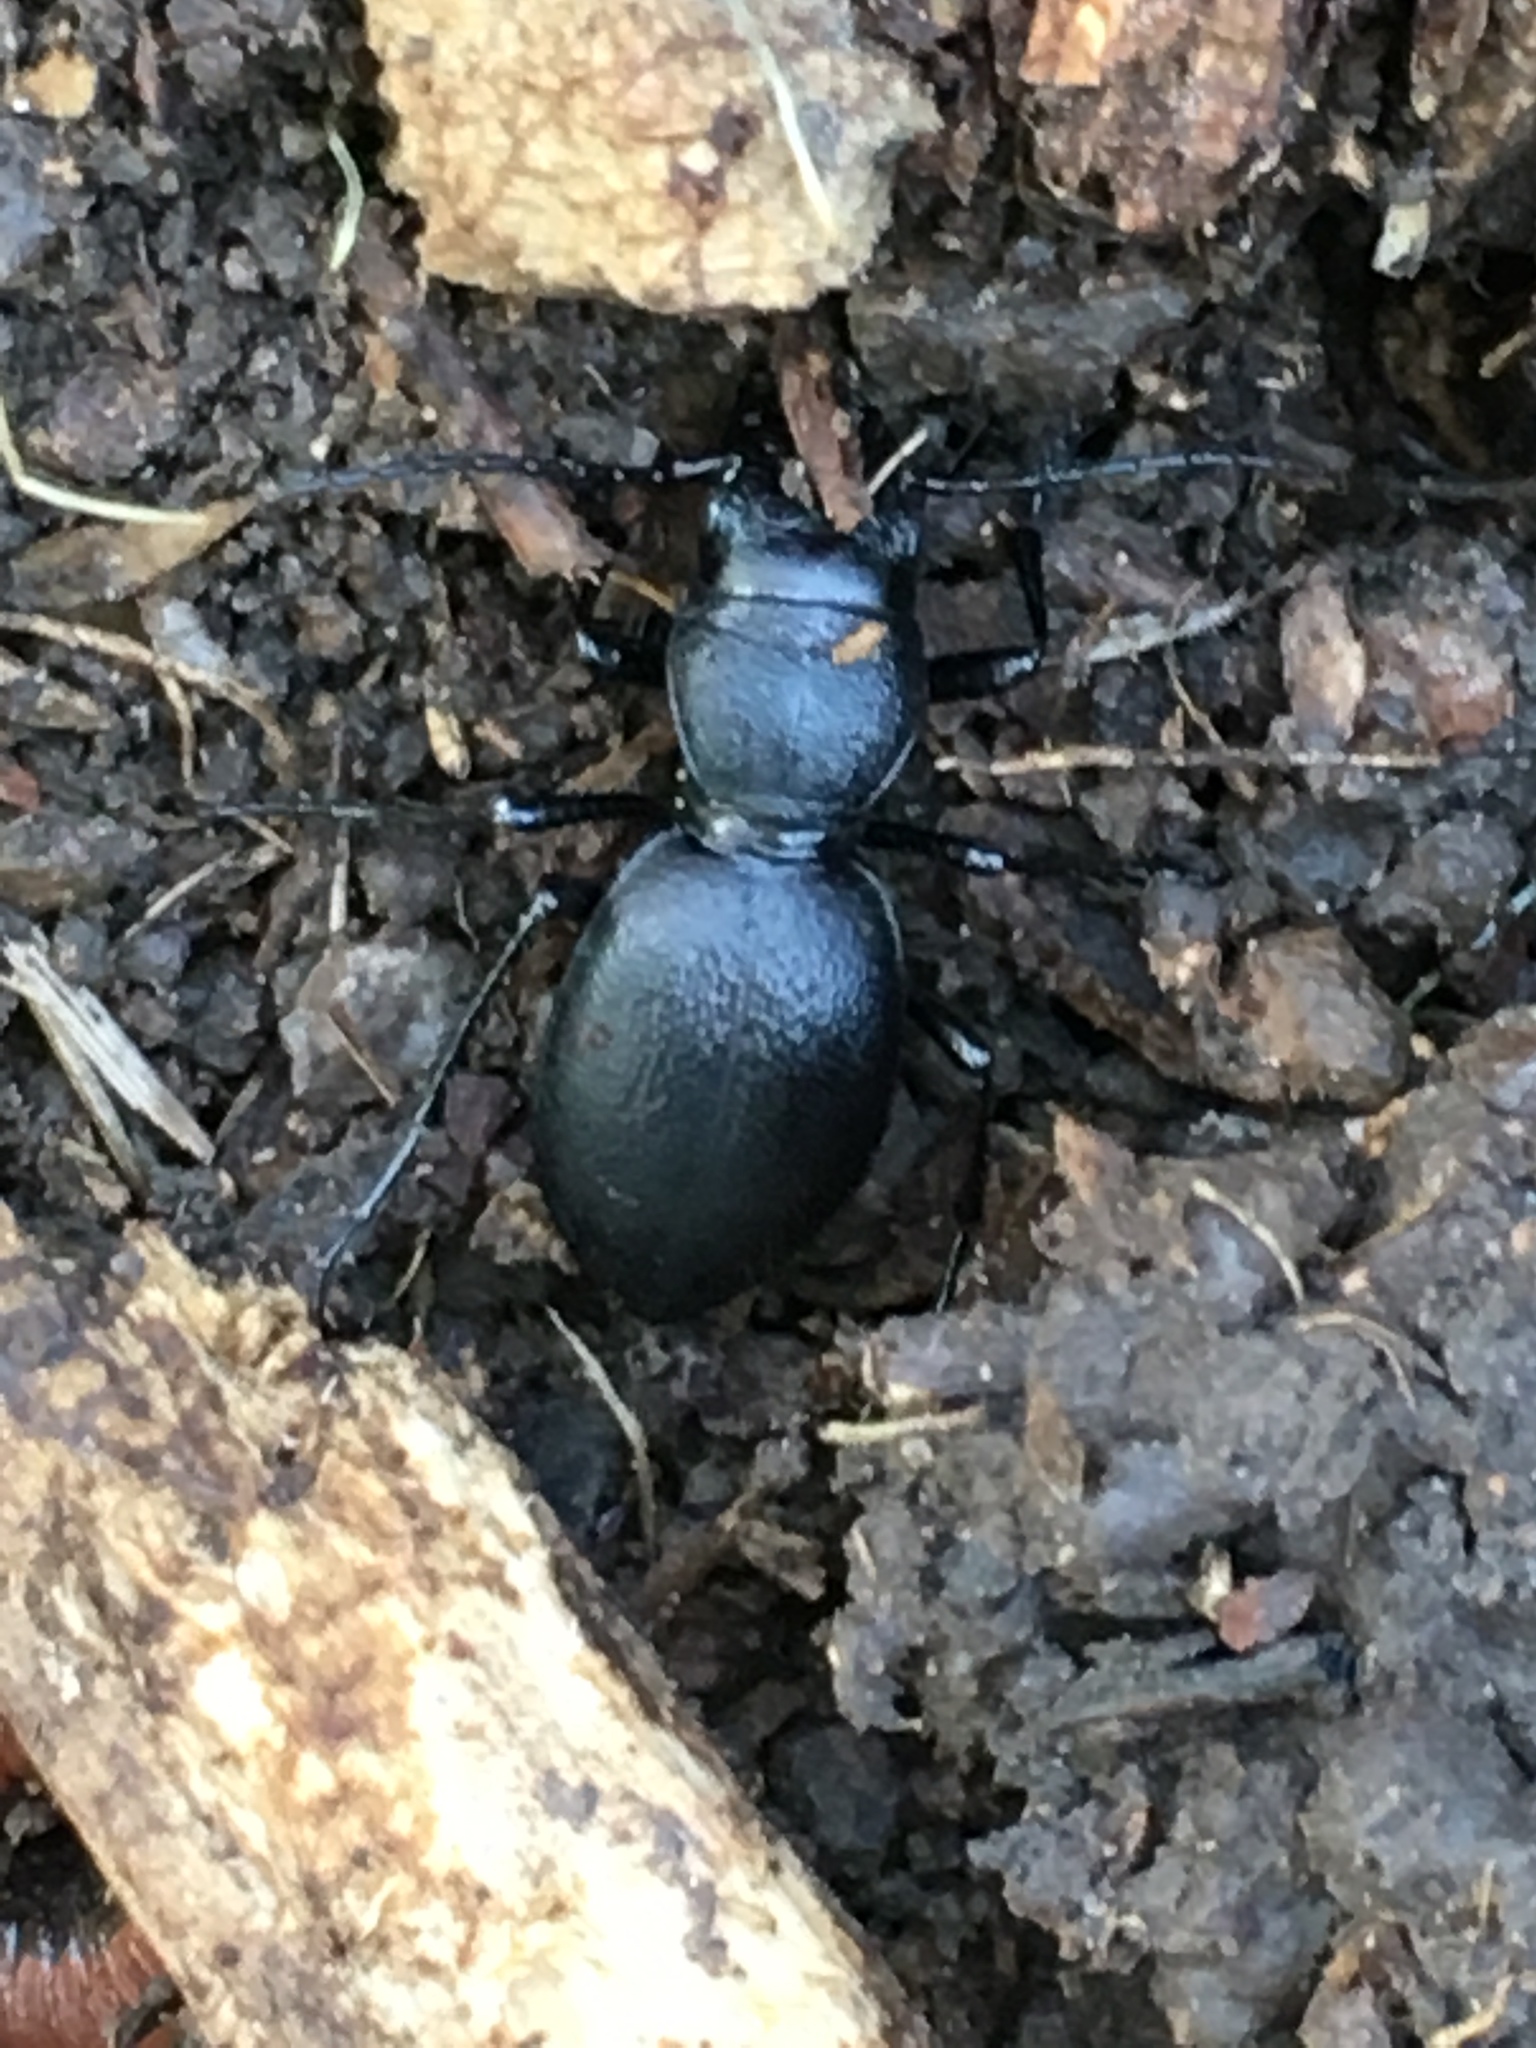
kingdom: Animalia
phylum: Arthropoda
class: Insecta
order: Coleoptera
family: Carabidae
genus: Omus
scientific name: Omus californicus
